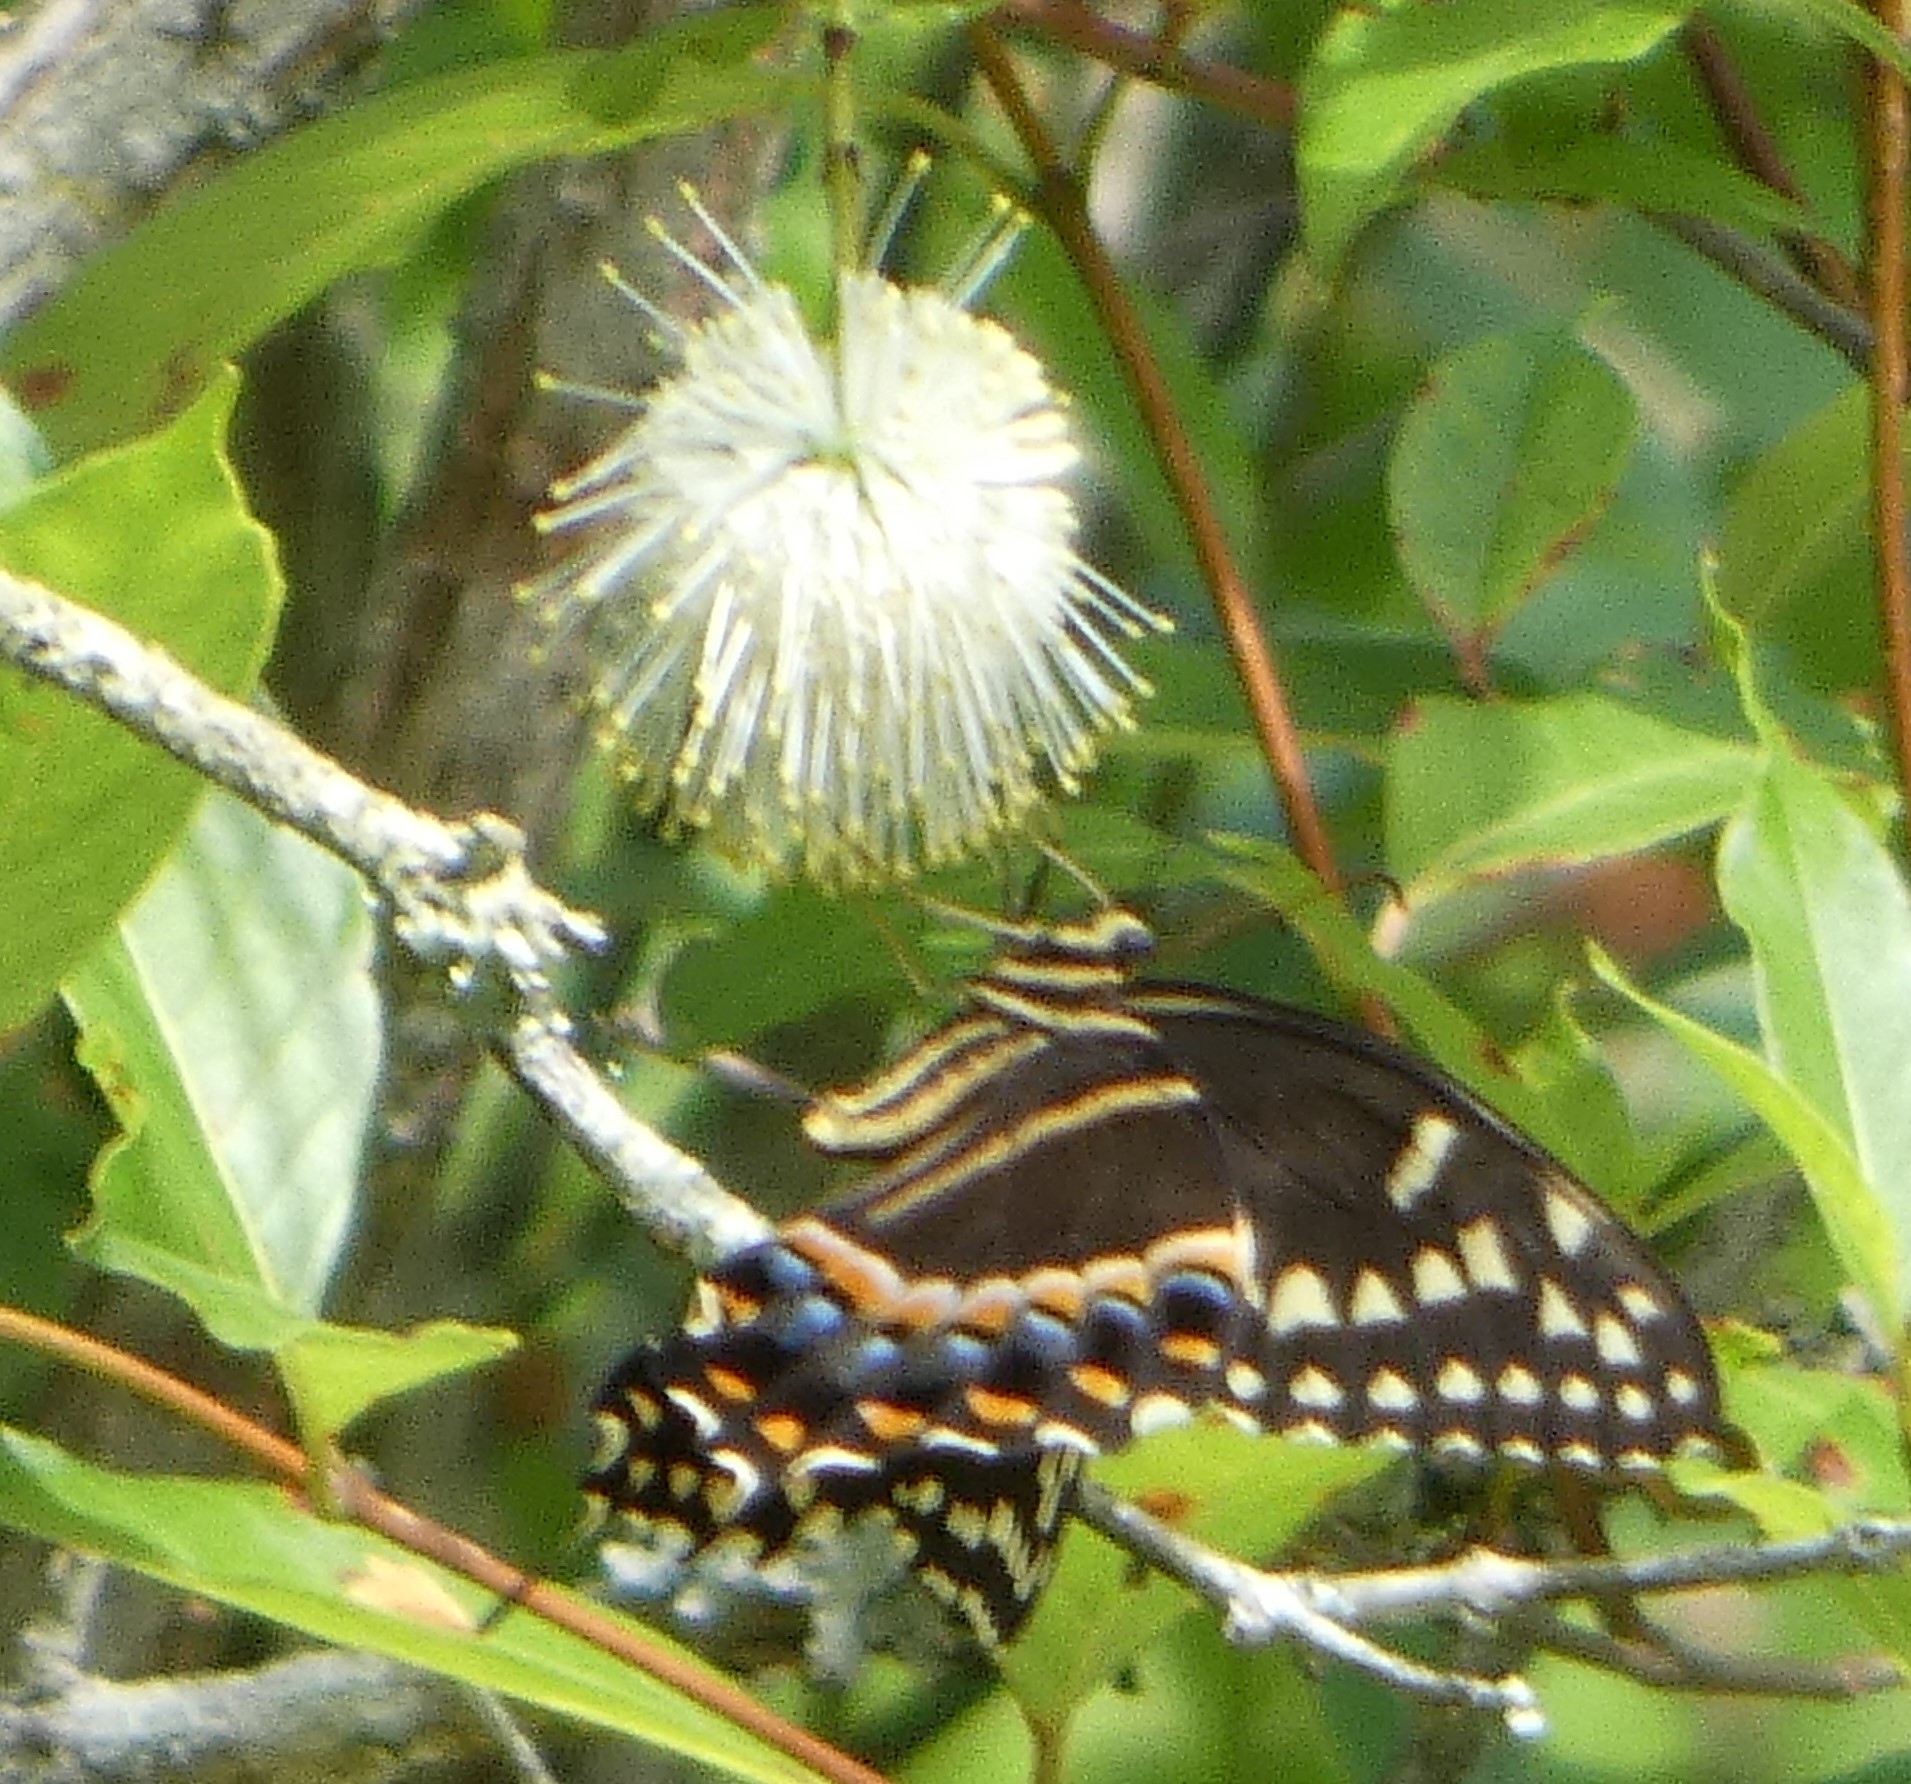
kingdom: Animalia
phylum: Arthropoda
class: Insecta
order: Lepidoptera
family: Papilionidae
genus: Papilio
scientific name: Papilio palamedes
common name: Palamedes swallowtail
